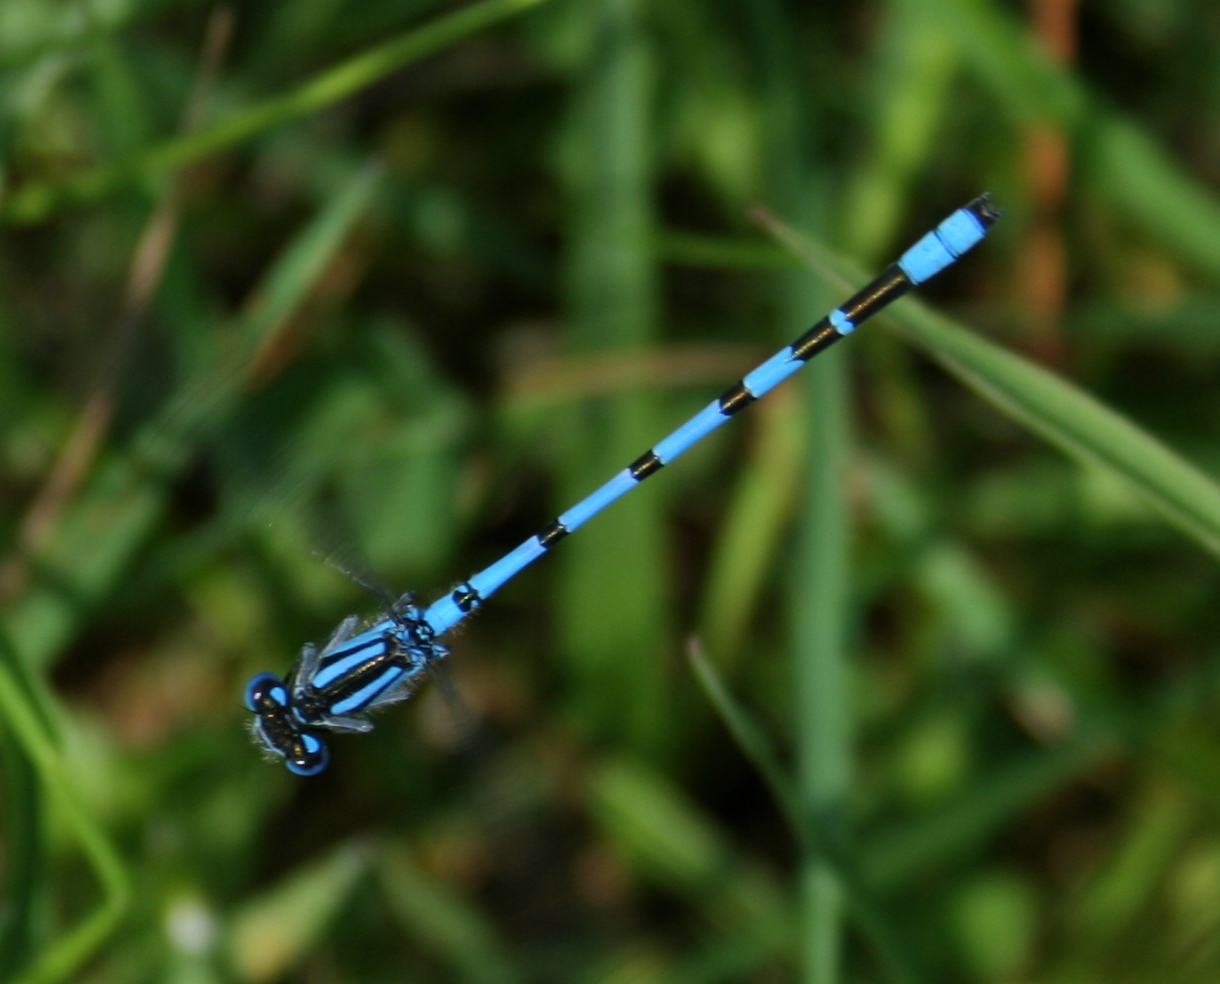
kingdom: Animalia
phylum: Arthropoda
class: Insecta
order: Odonata
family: Coenagrionidae
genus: Enallagma
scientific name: Enallagma cyathigerum
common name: Common blue damselfly
